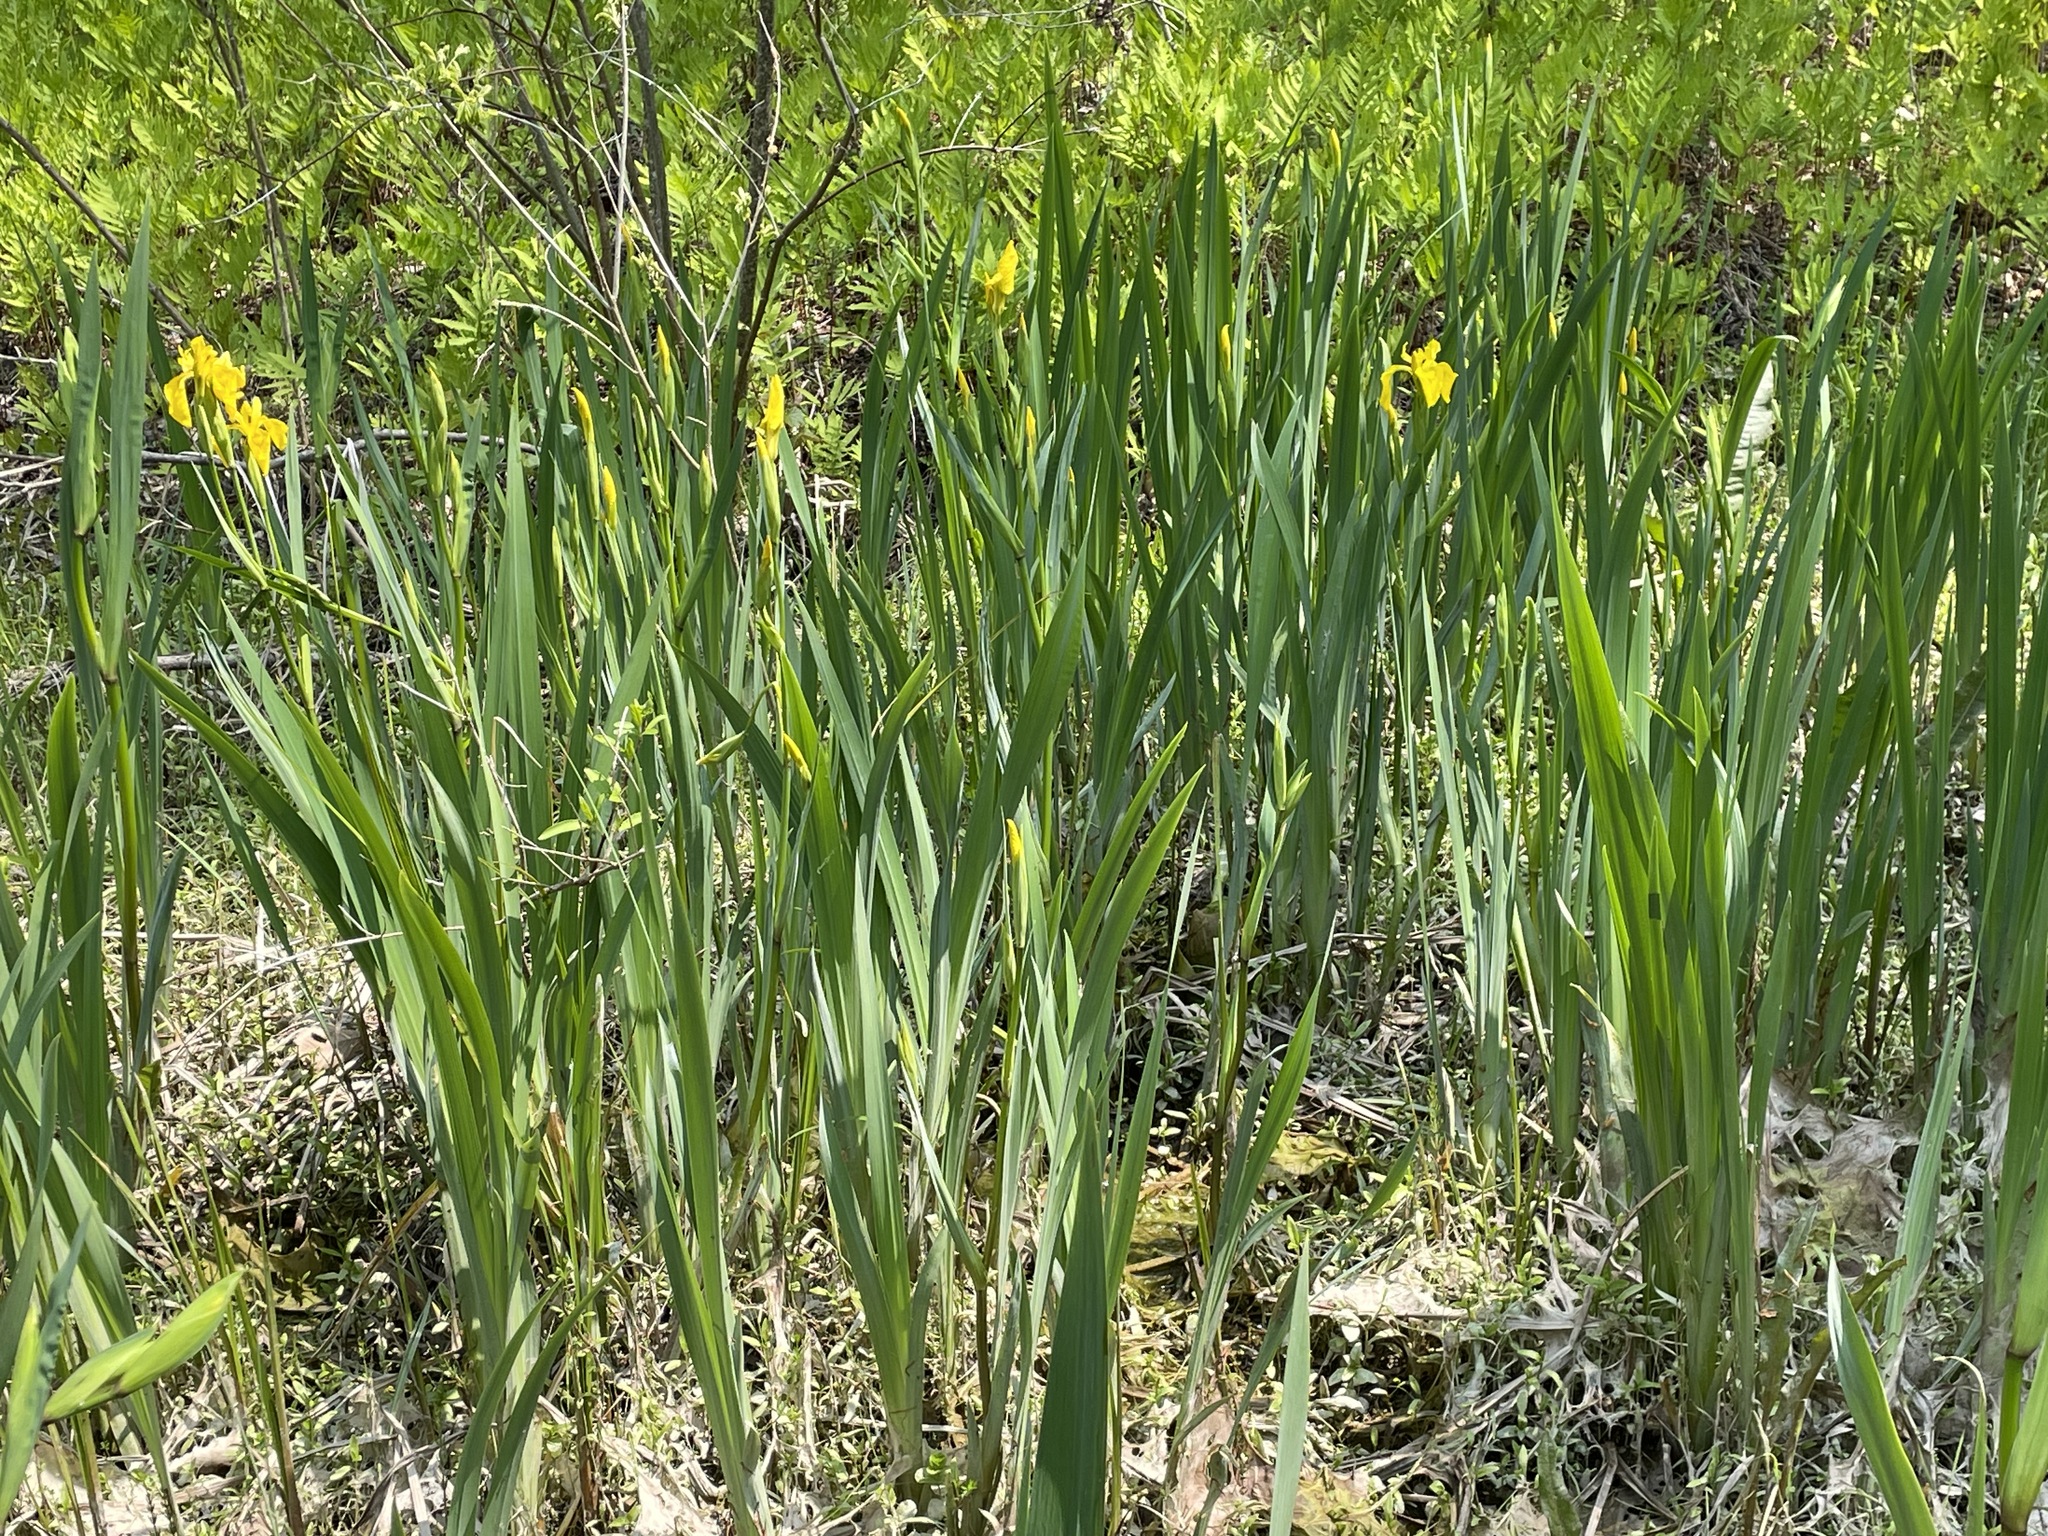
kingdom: Plantae
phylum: Tracheophyta
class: Liliopsida
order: Asparagales
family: Iridaceae
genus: Iris
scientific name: Iris pseudacorus
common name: Yellow flag
